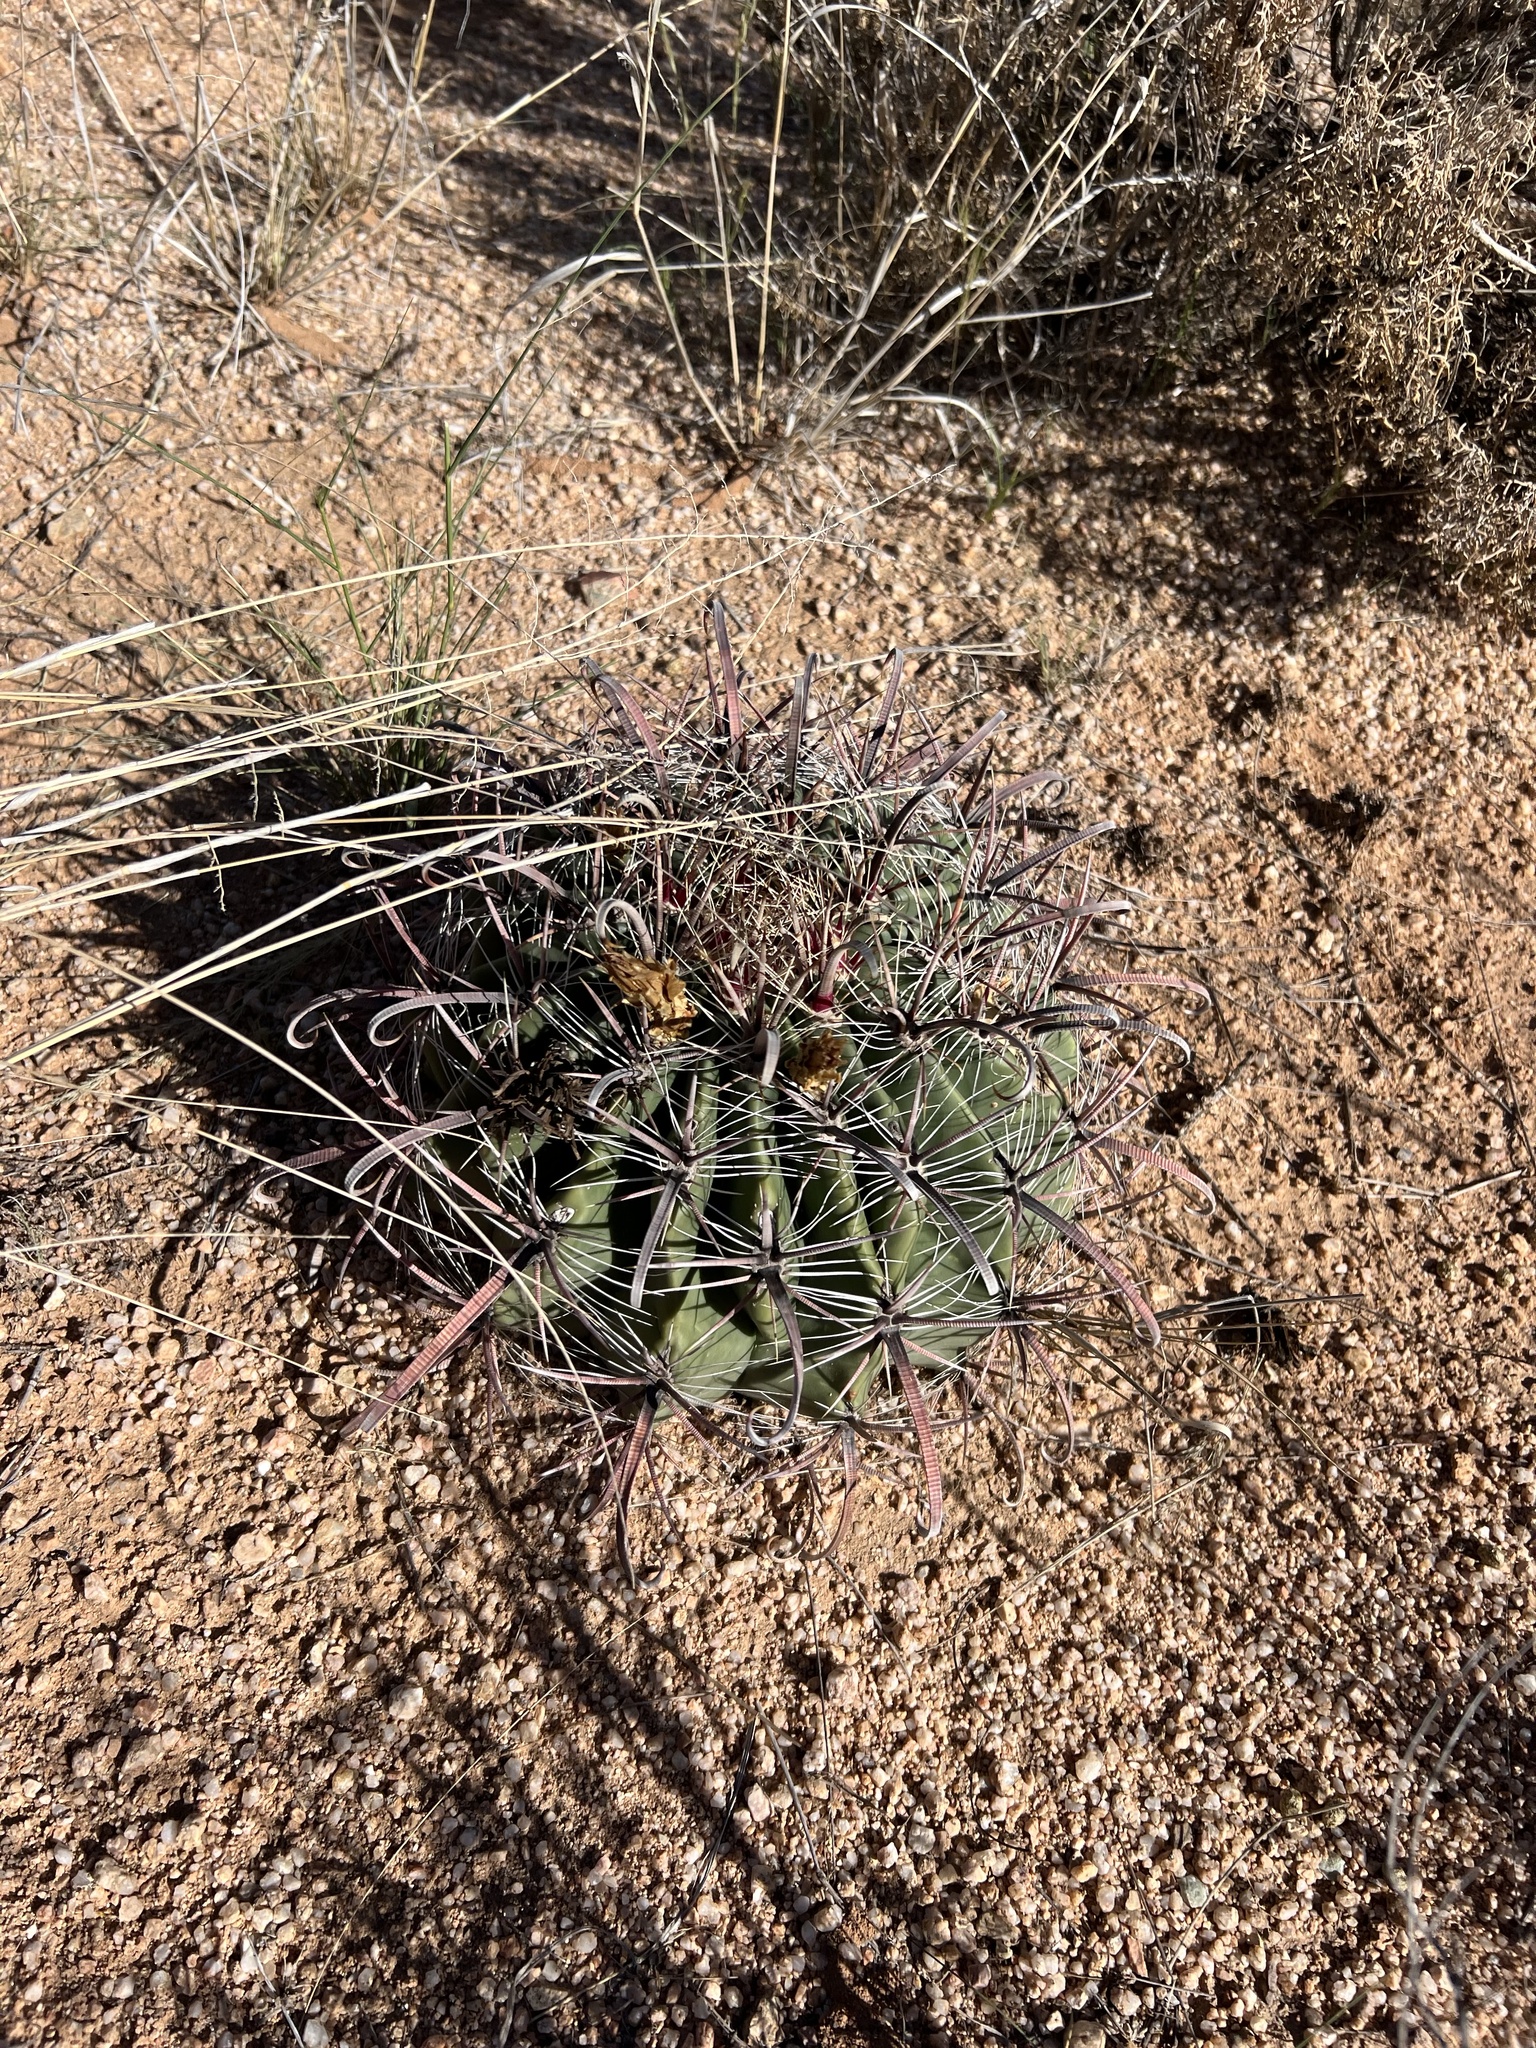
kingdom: Plantae
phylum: Tracheophyta
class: Magnoliopsida
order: Caryophyllales
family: Cactaceae
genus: Ferocactus
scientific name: Ferocactus wislizeni
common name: Candy barrel cactus
